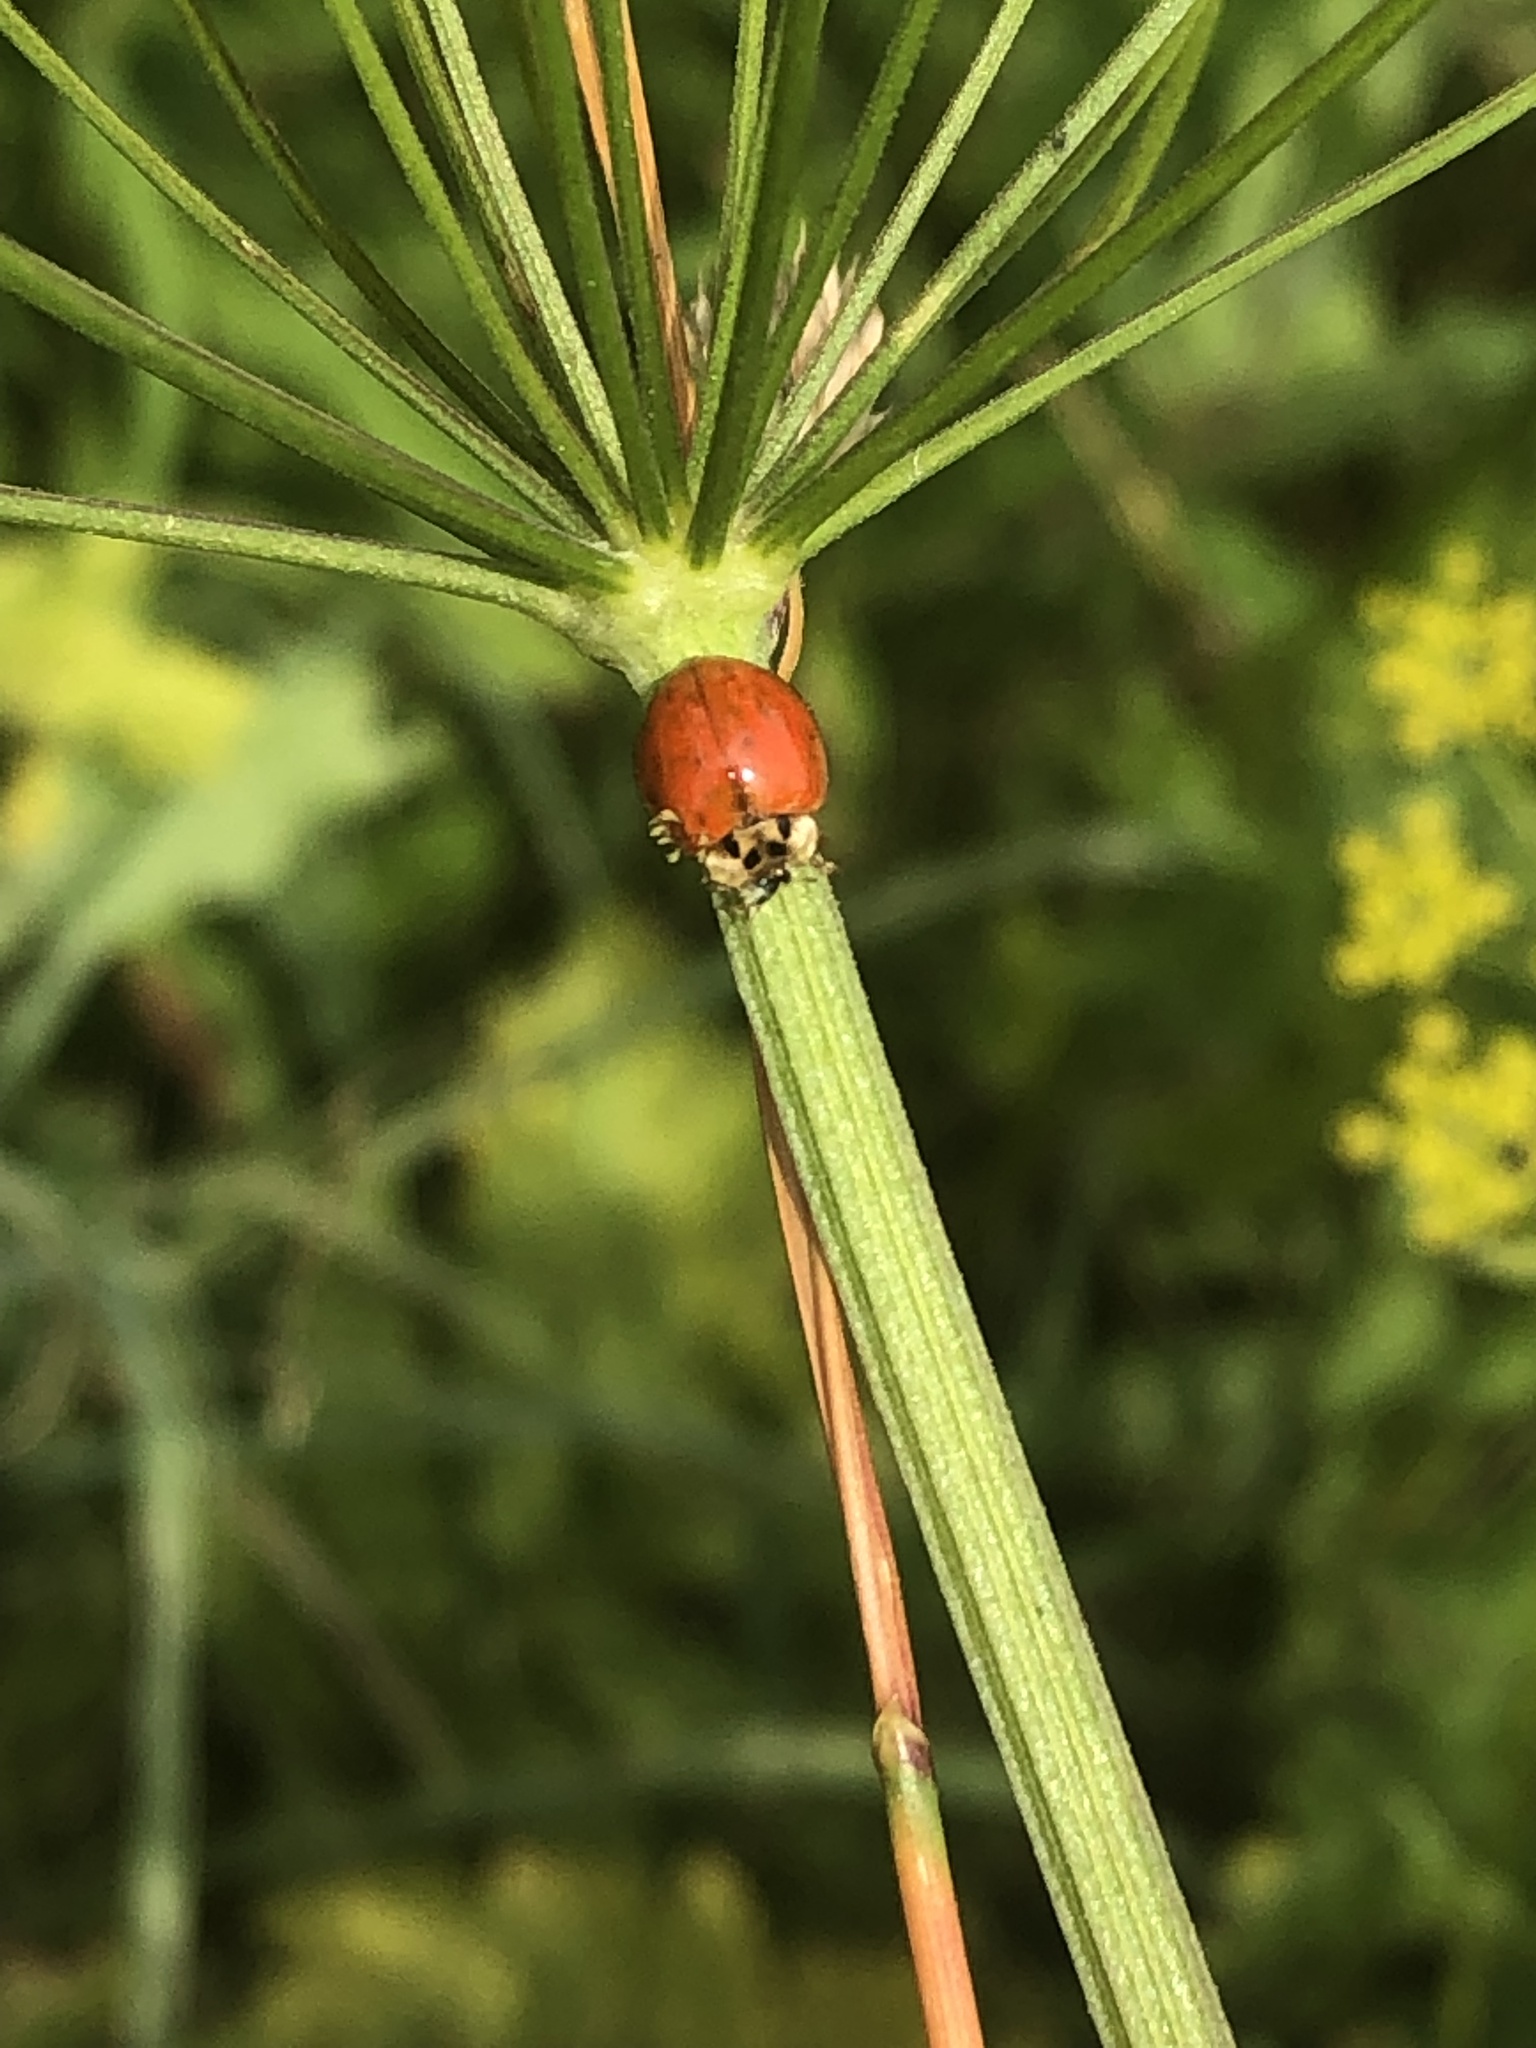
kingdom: Animalia
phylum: Arthropoda
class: Insecta
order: Coleoptera
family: Coccinellidae
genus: Harmonia
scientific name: Harmonia axyridis
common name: Harlequin ladybird
